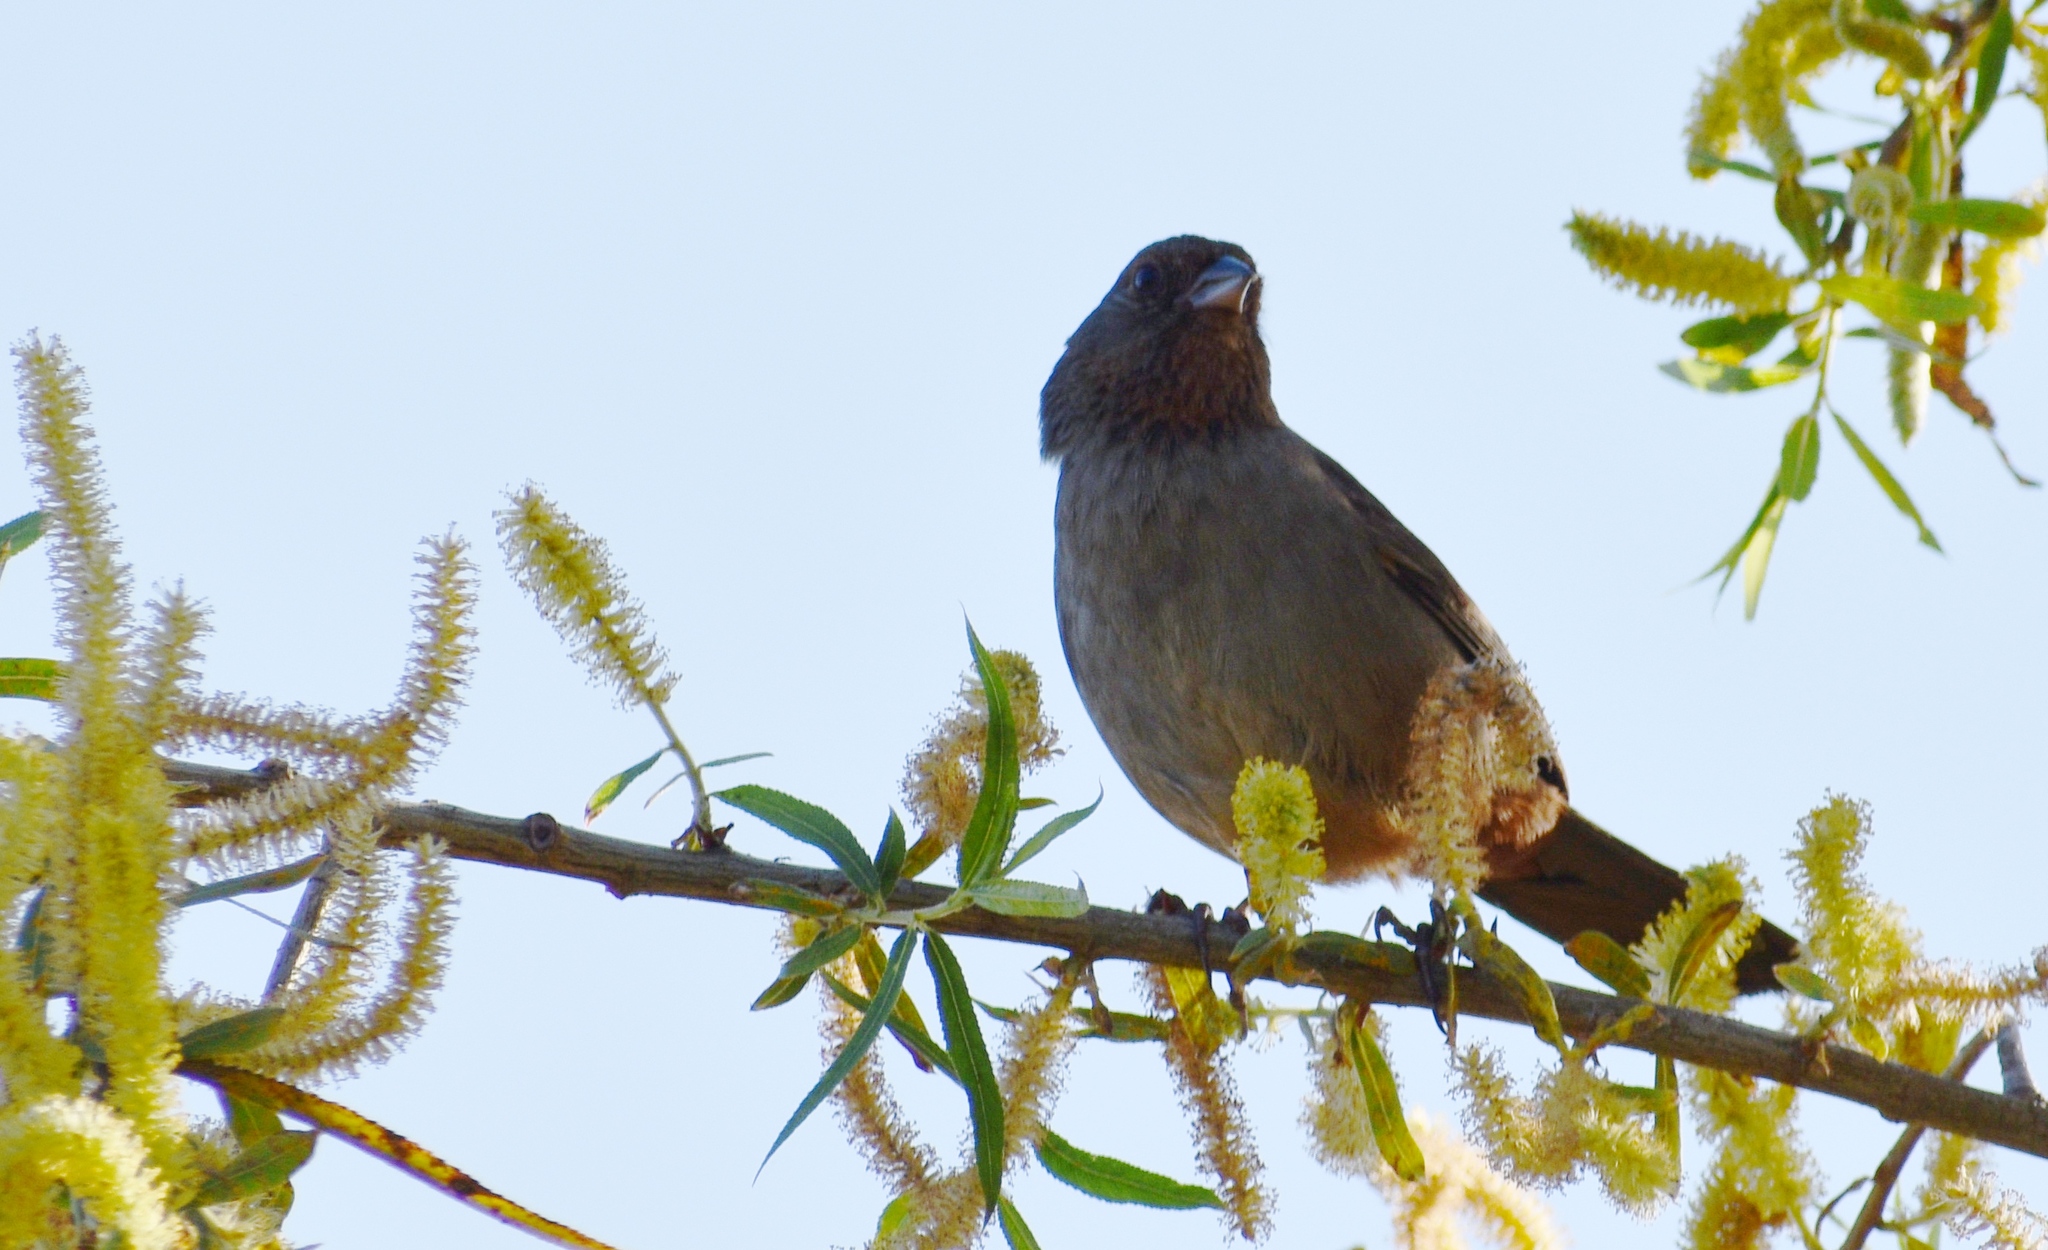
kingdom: Animalia
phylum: Chordata
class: Aves
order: Passeriformes
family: Passerellidae
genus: Melozone
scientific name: Melozone crissalis
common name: California towhee
